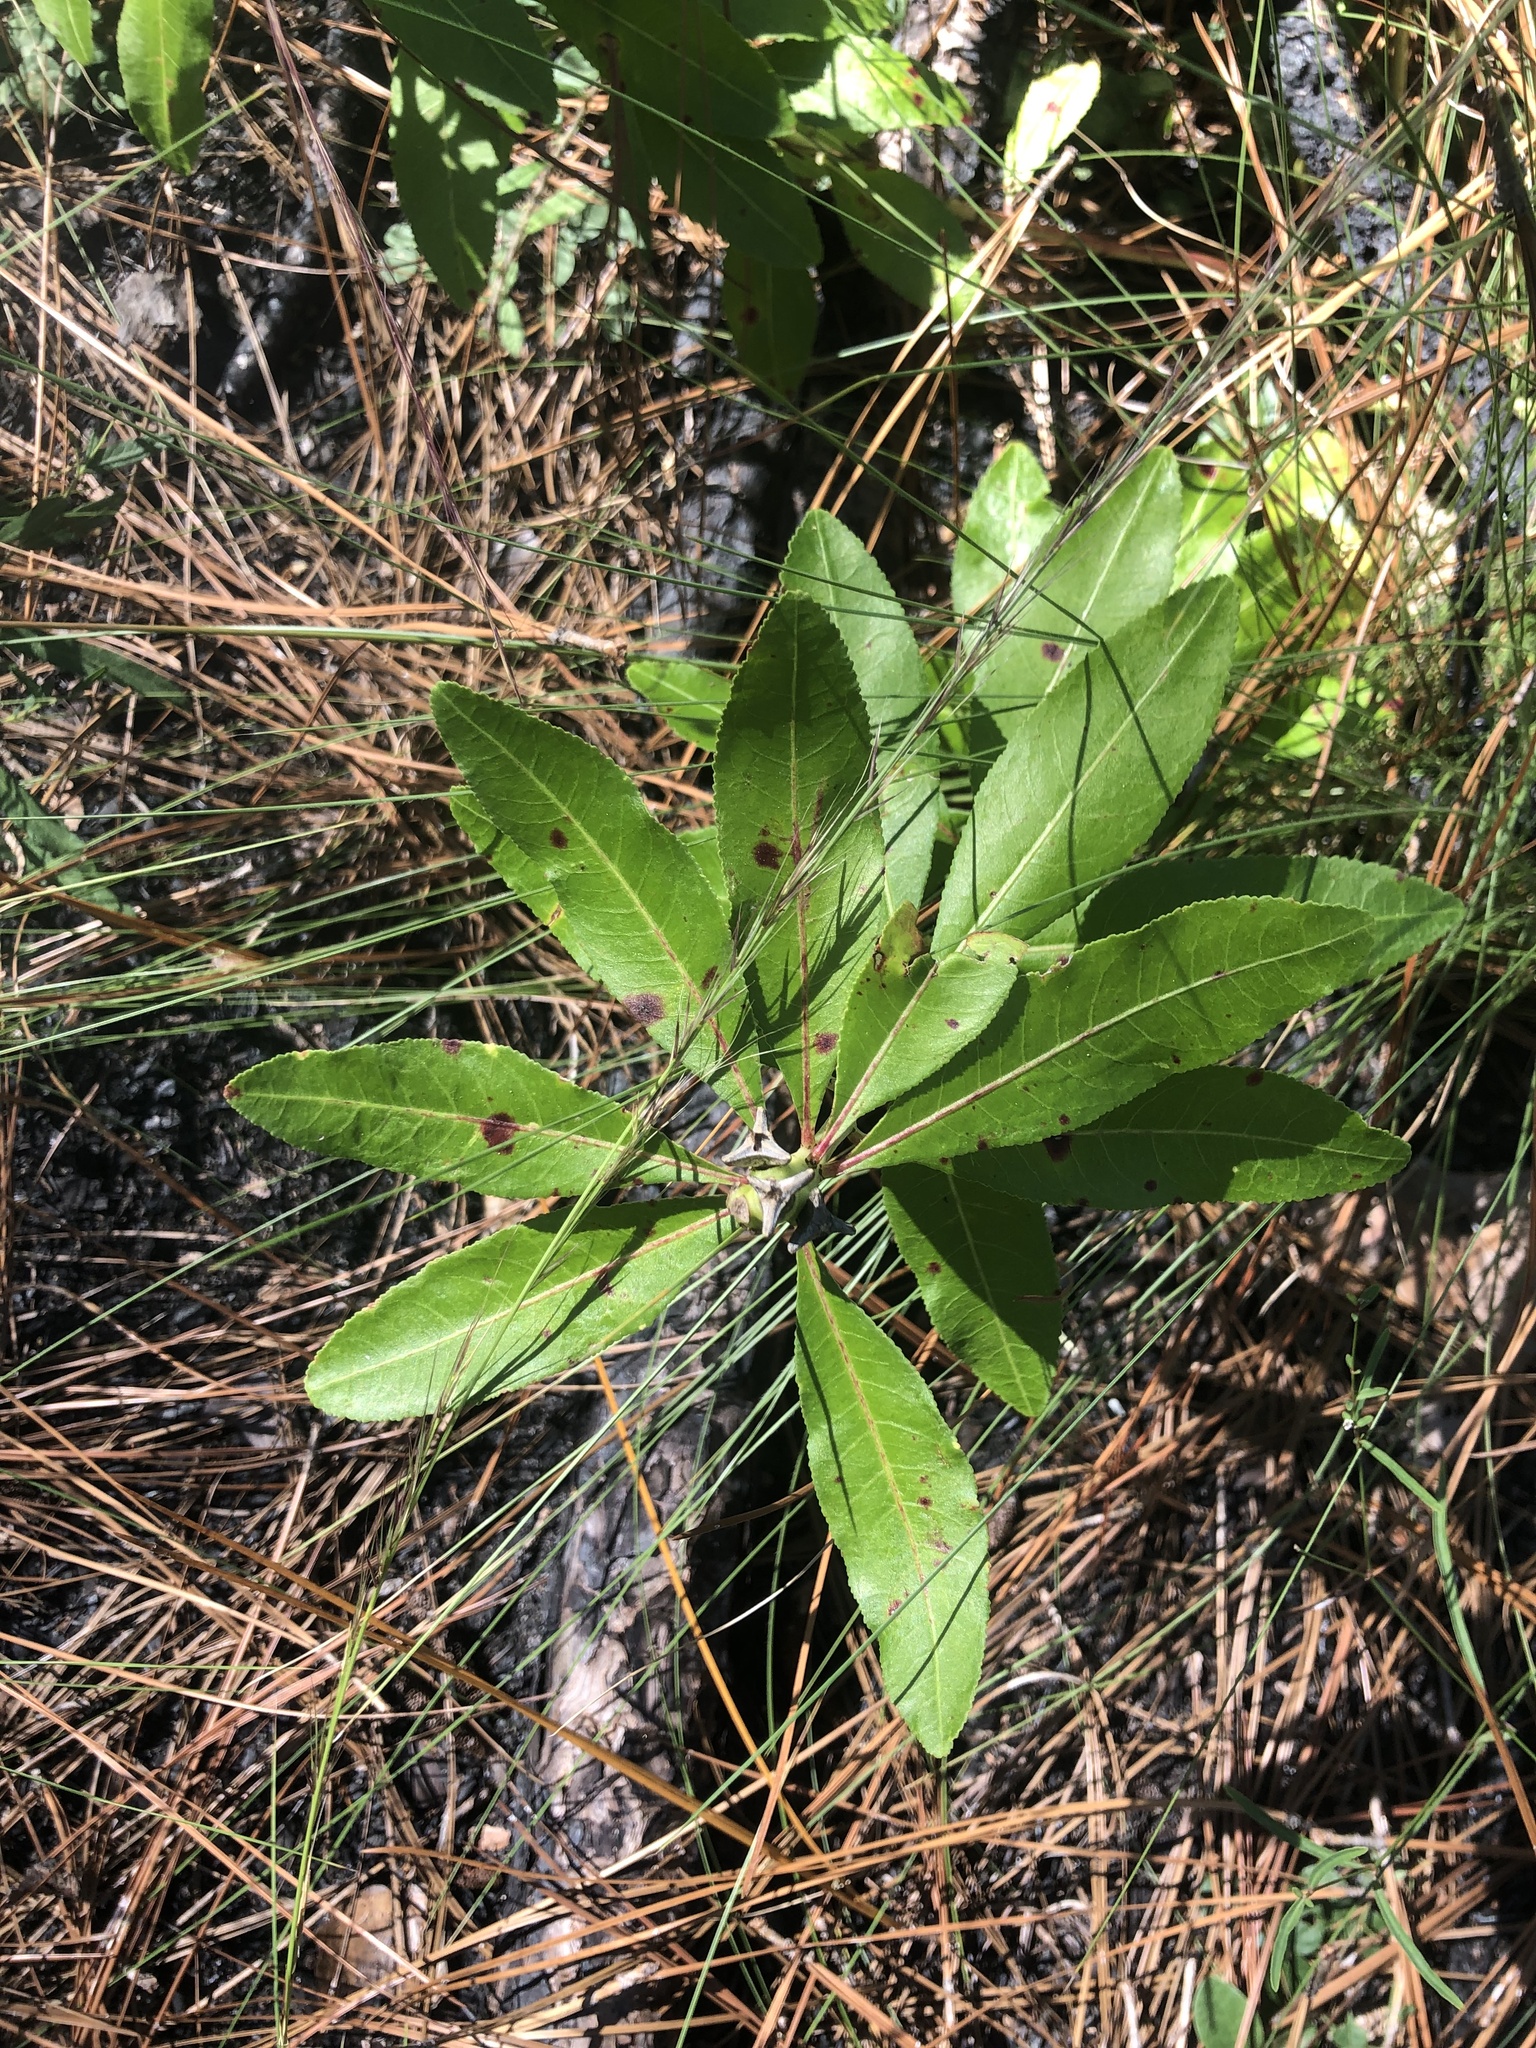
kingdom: Plantae
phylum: Tracheophyta
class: Magnoliopsida
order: Malpighiales
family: Euphorbiaceae
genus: Stillingia
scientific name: Stillingia sylvatica
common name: Queen's-delight
